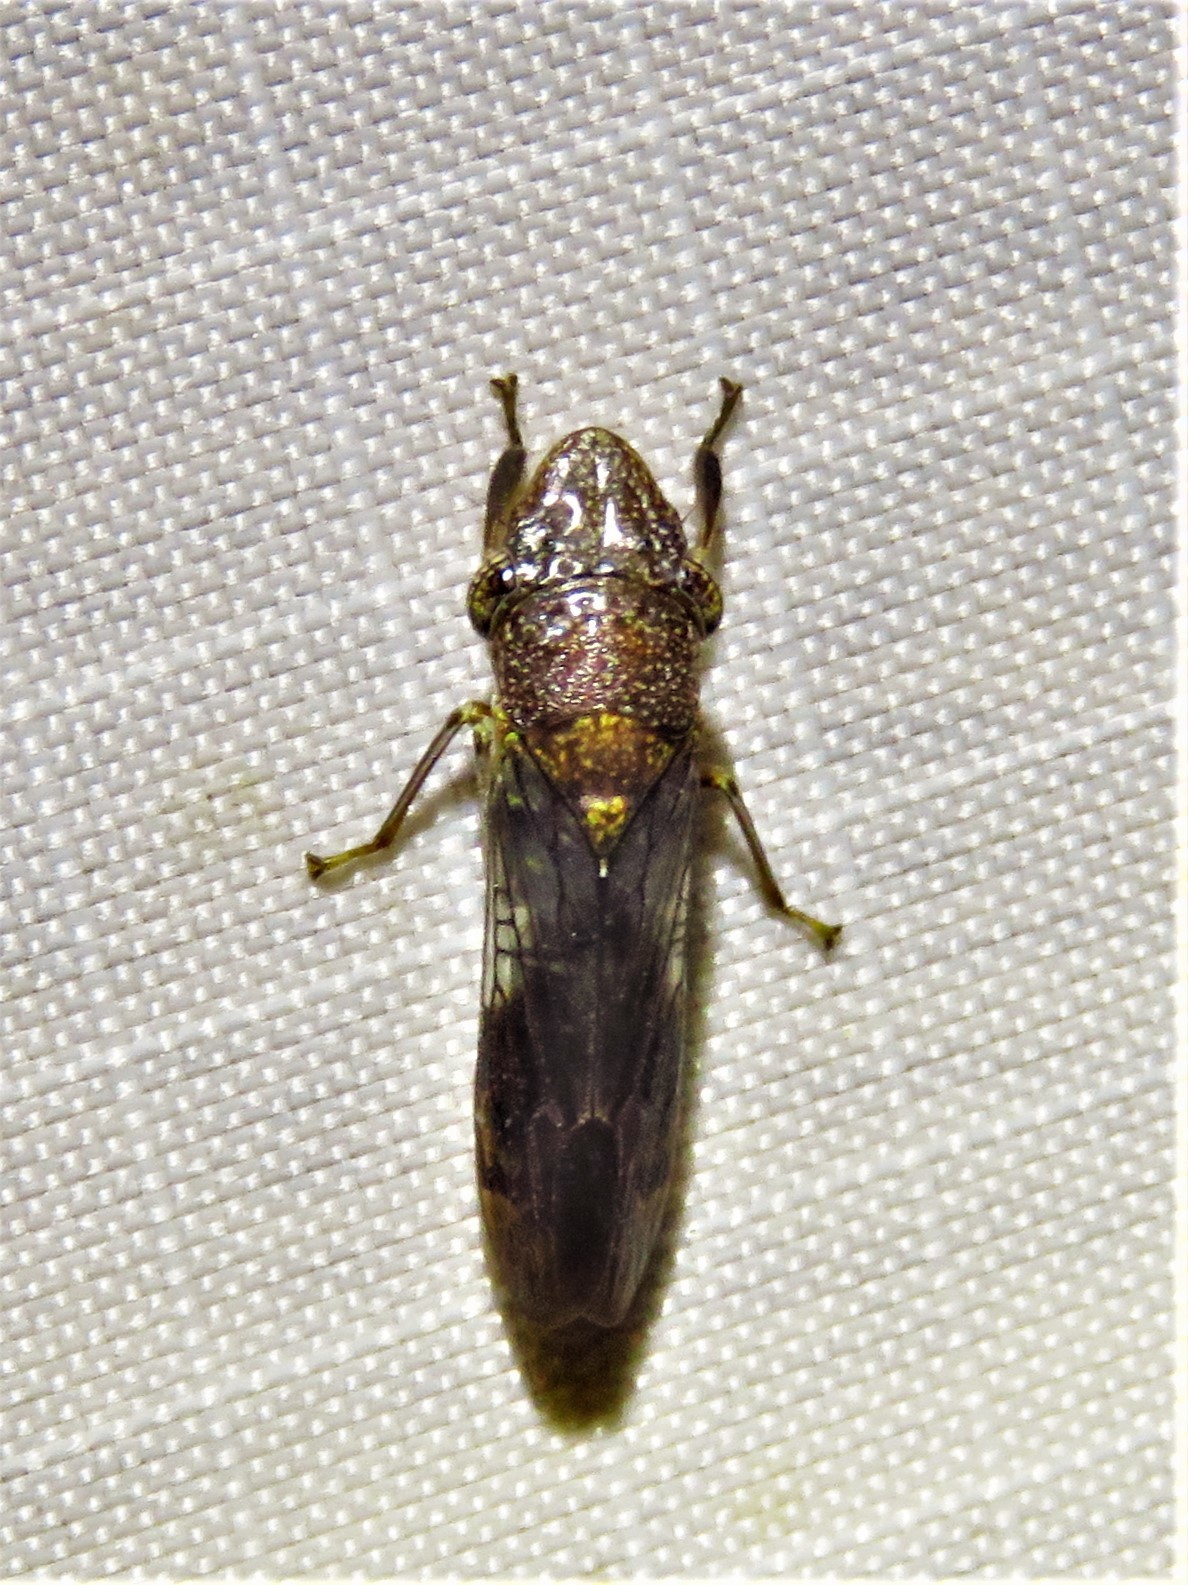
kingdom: Animalia
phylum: Arthropoda
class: Insecta
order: Hemiptera
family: Cicadellidae
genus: Homalodisca
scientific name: Homalodisca vitripennis
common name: Glassy-winged sharpshooter
